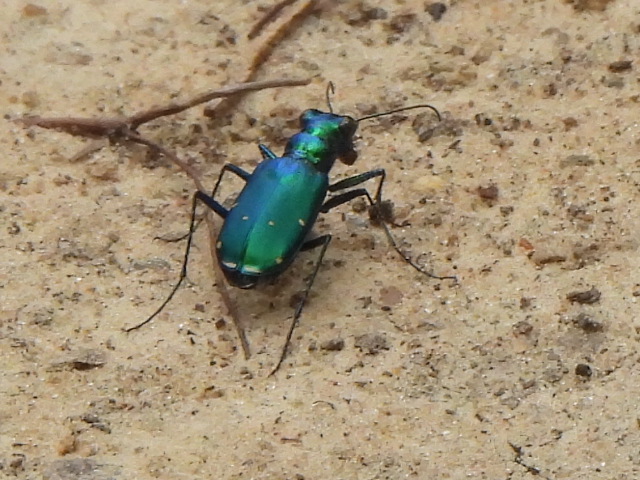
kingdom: Animalia
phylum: Arthropoda
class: Insecta
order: Coleoptera
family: Carabidae
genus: Cicindela
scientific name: Cicindela sexguttata
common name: Six-spotted tiger beetle
